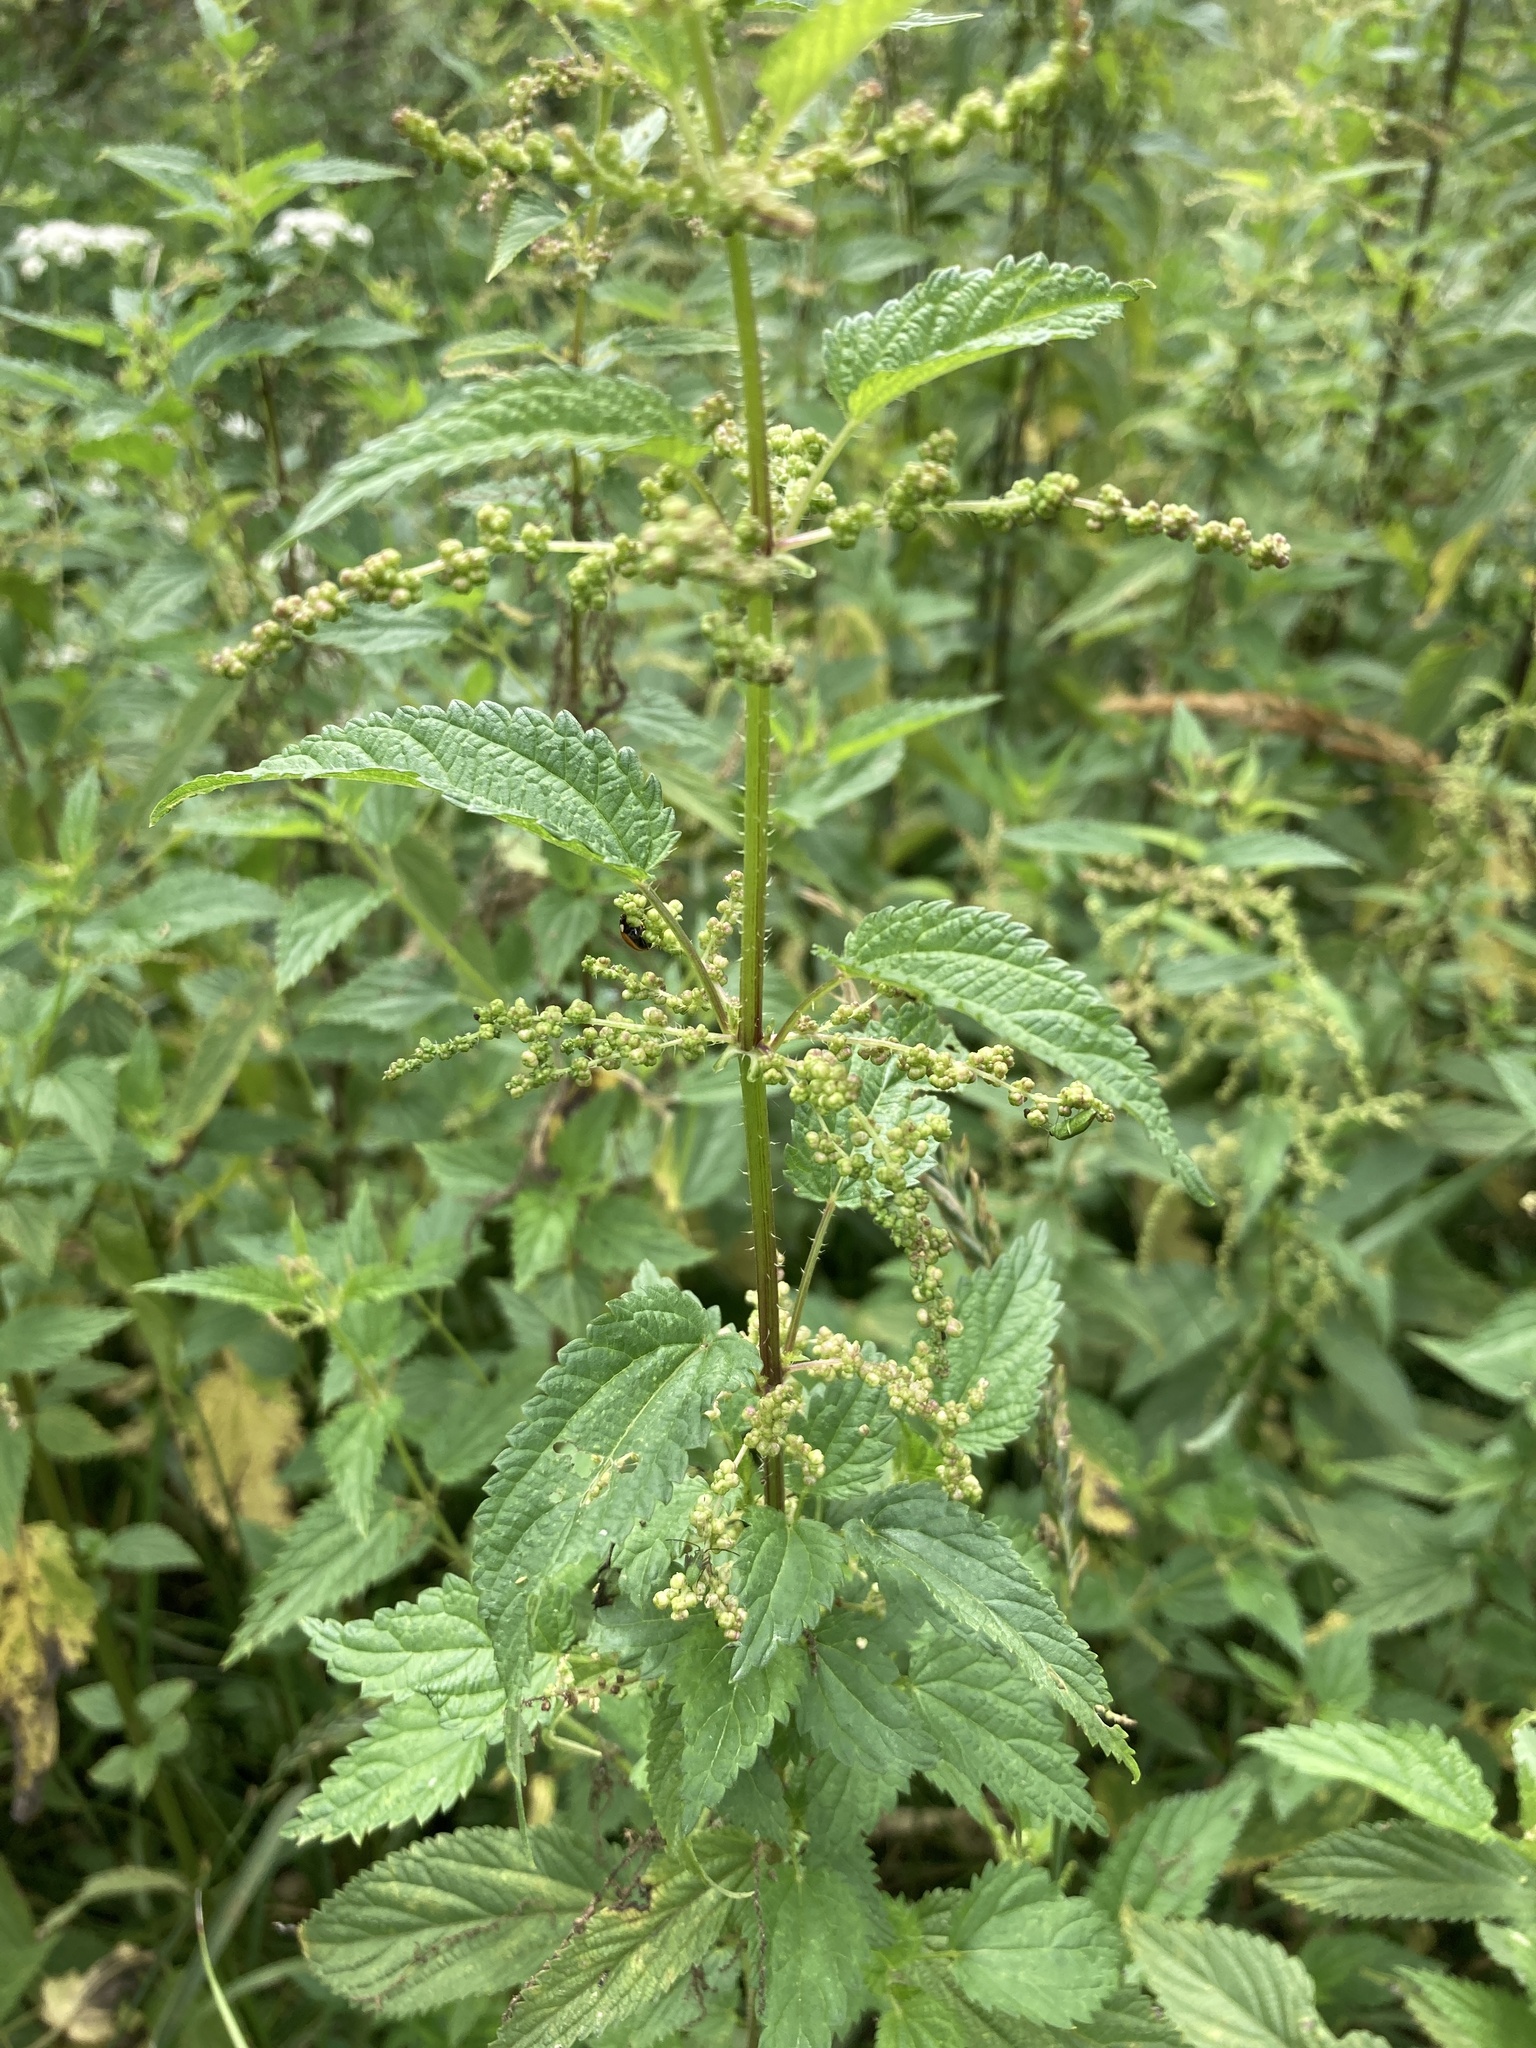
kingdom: Plantae
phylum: Tracheophyta
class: Magnoliopsida
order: Rosales
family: Urticaceae
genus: Urtica
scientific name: Urtica dioica
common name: Common nettle
